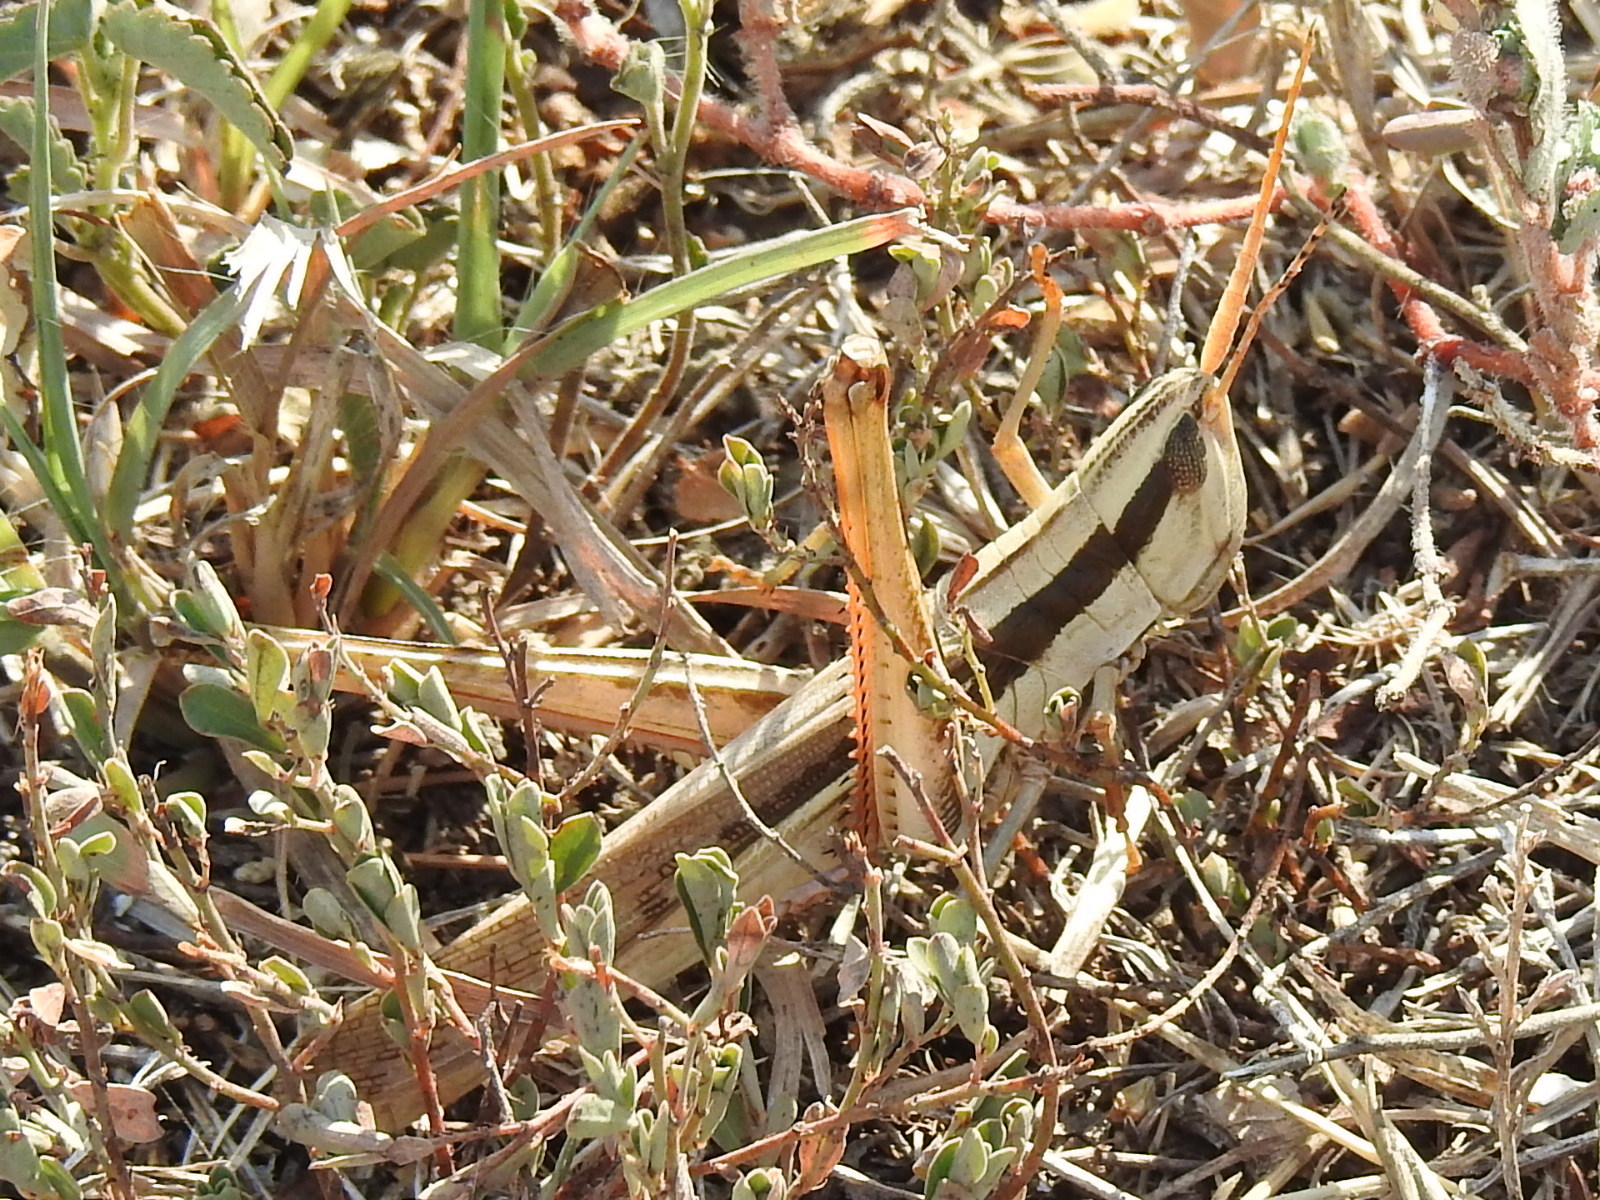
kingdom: Animalia
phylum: Arthropoda
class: Insecta
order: Orthoptera
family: Acrididae
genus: Mermiria
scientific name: Mermiria bivittata
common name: Two-striped mermiria grasshopper
